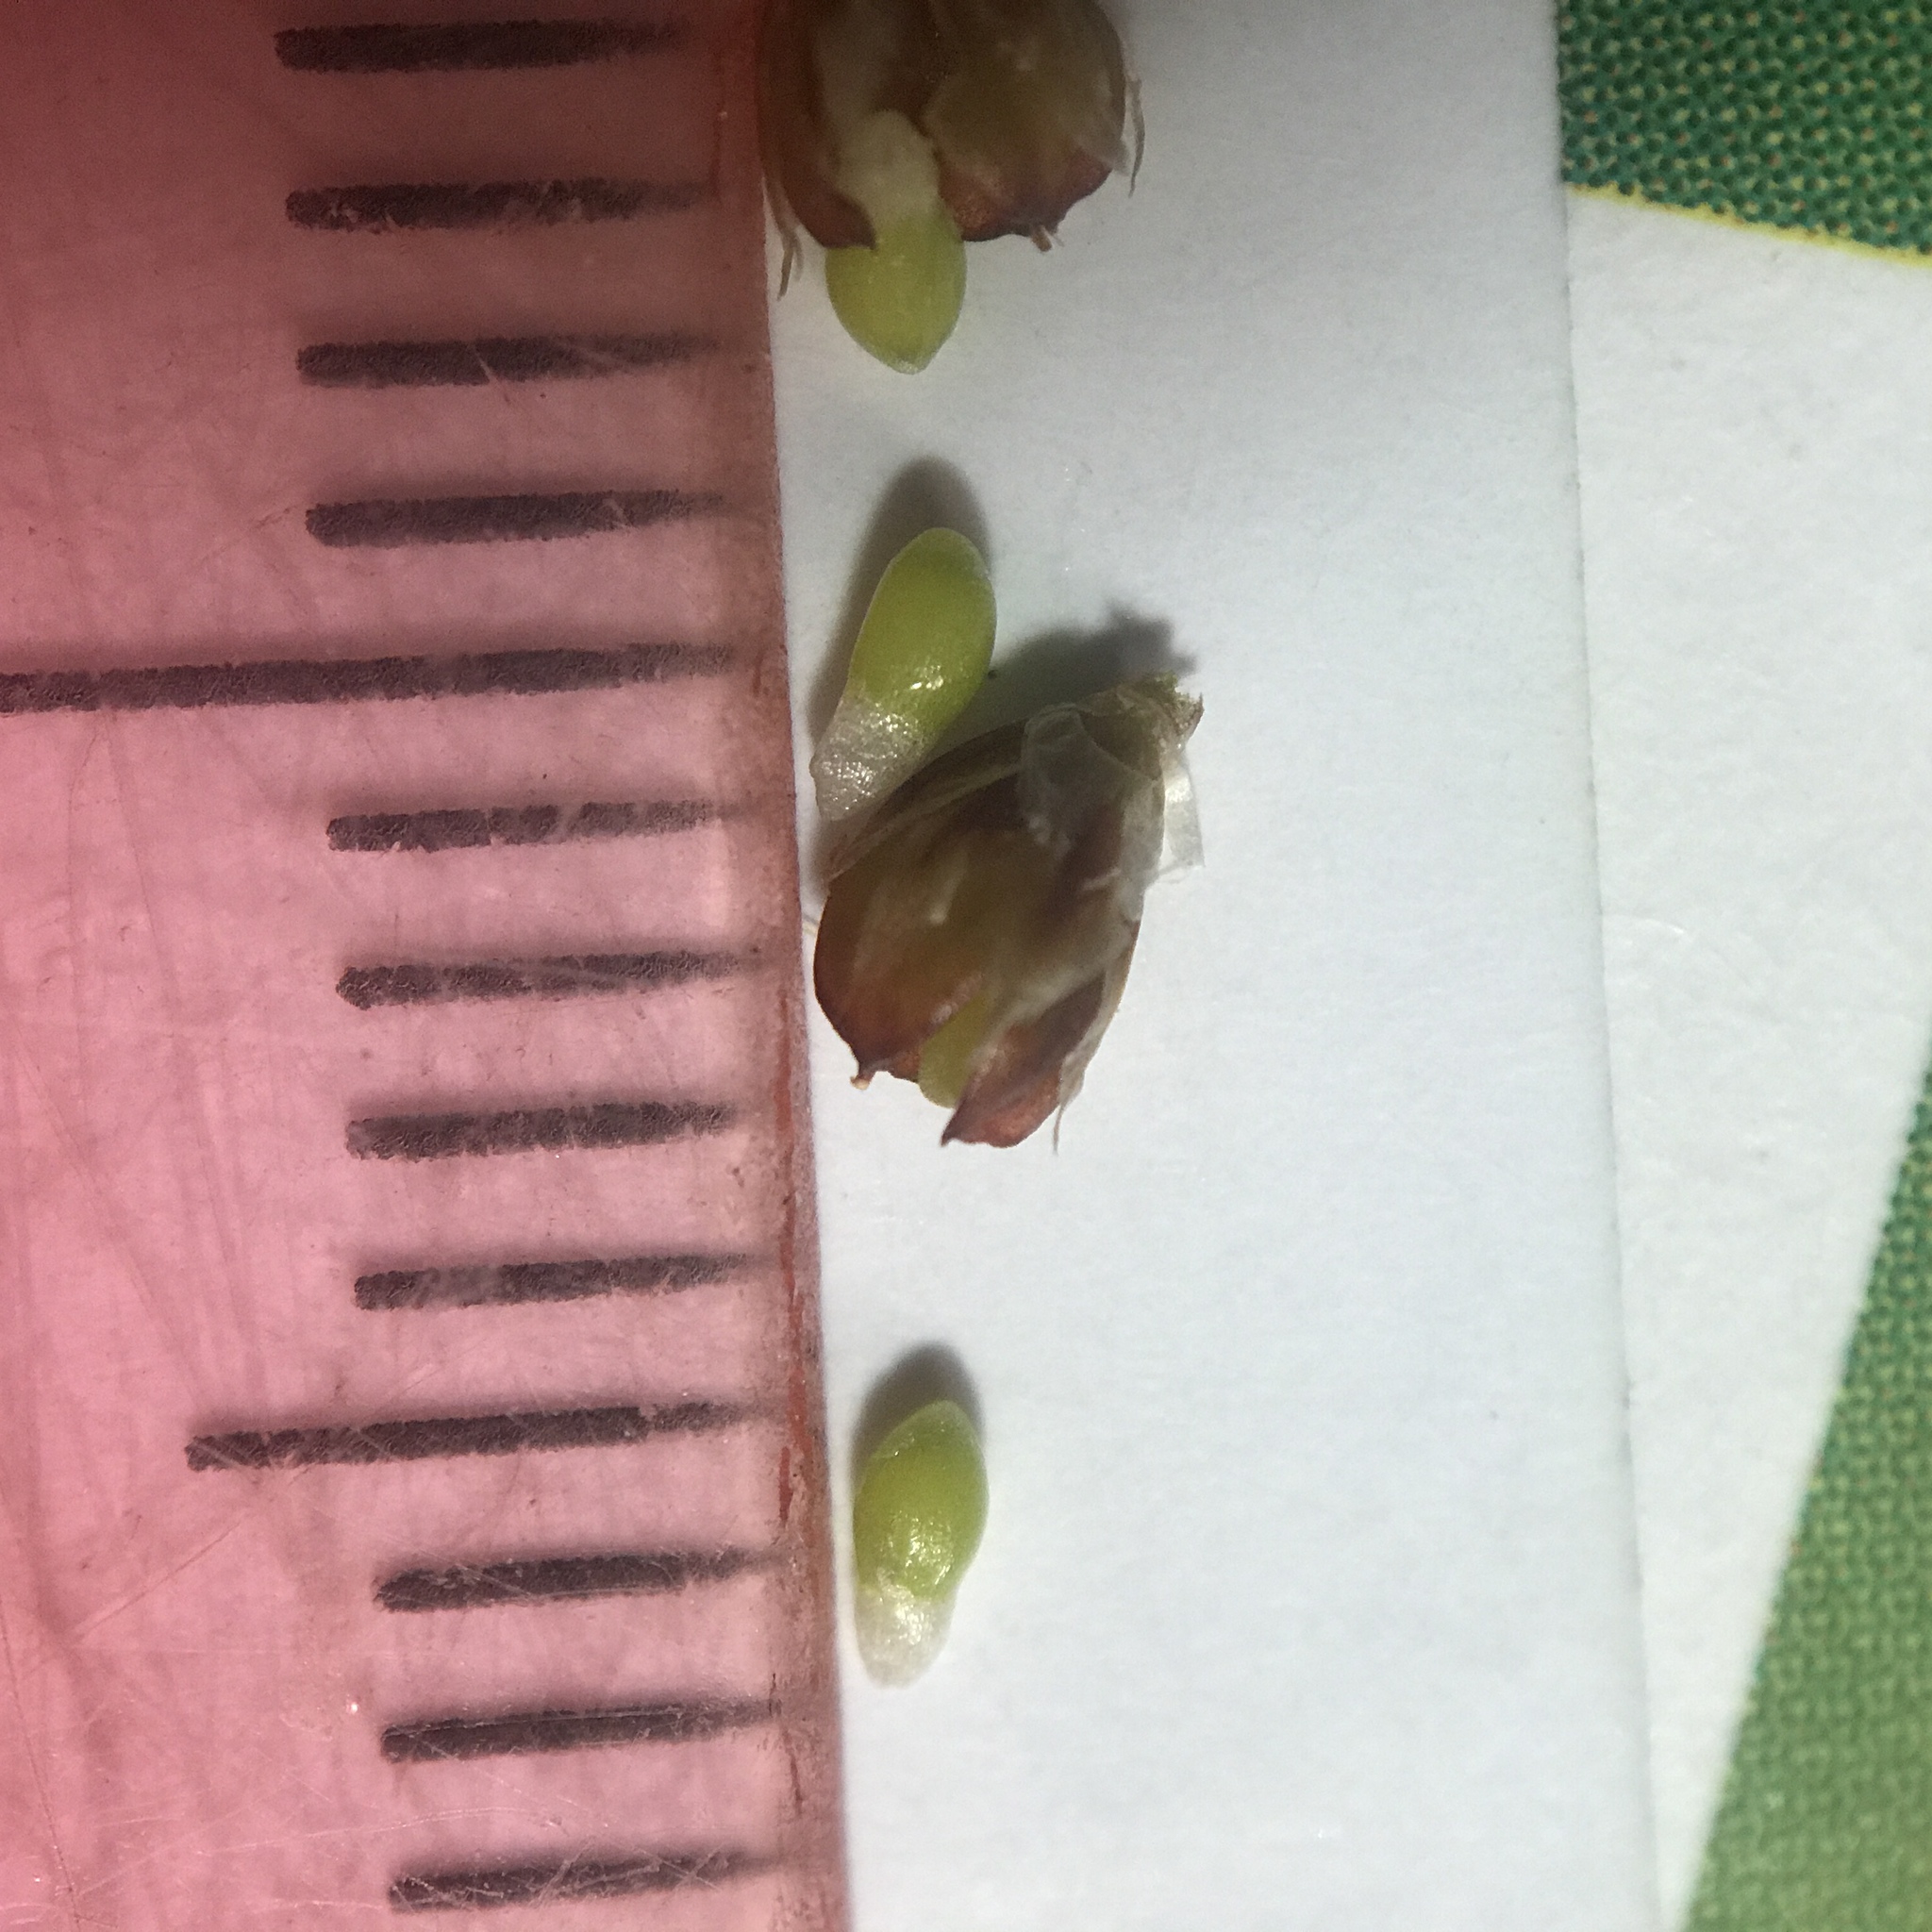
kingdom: Plantae
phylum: Tracheophyta
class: Liliopsida
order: Poales
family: Juncaceae
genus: Luzula
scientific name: Luzula bulbosa
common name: Bulbous woodrush
